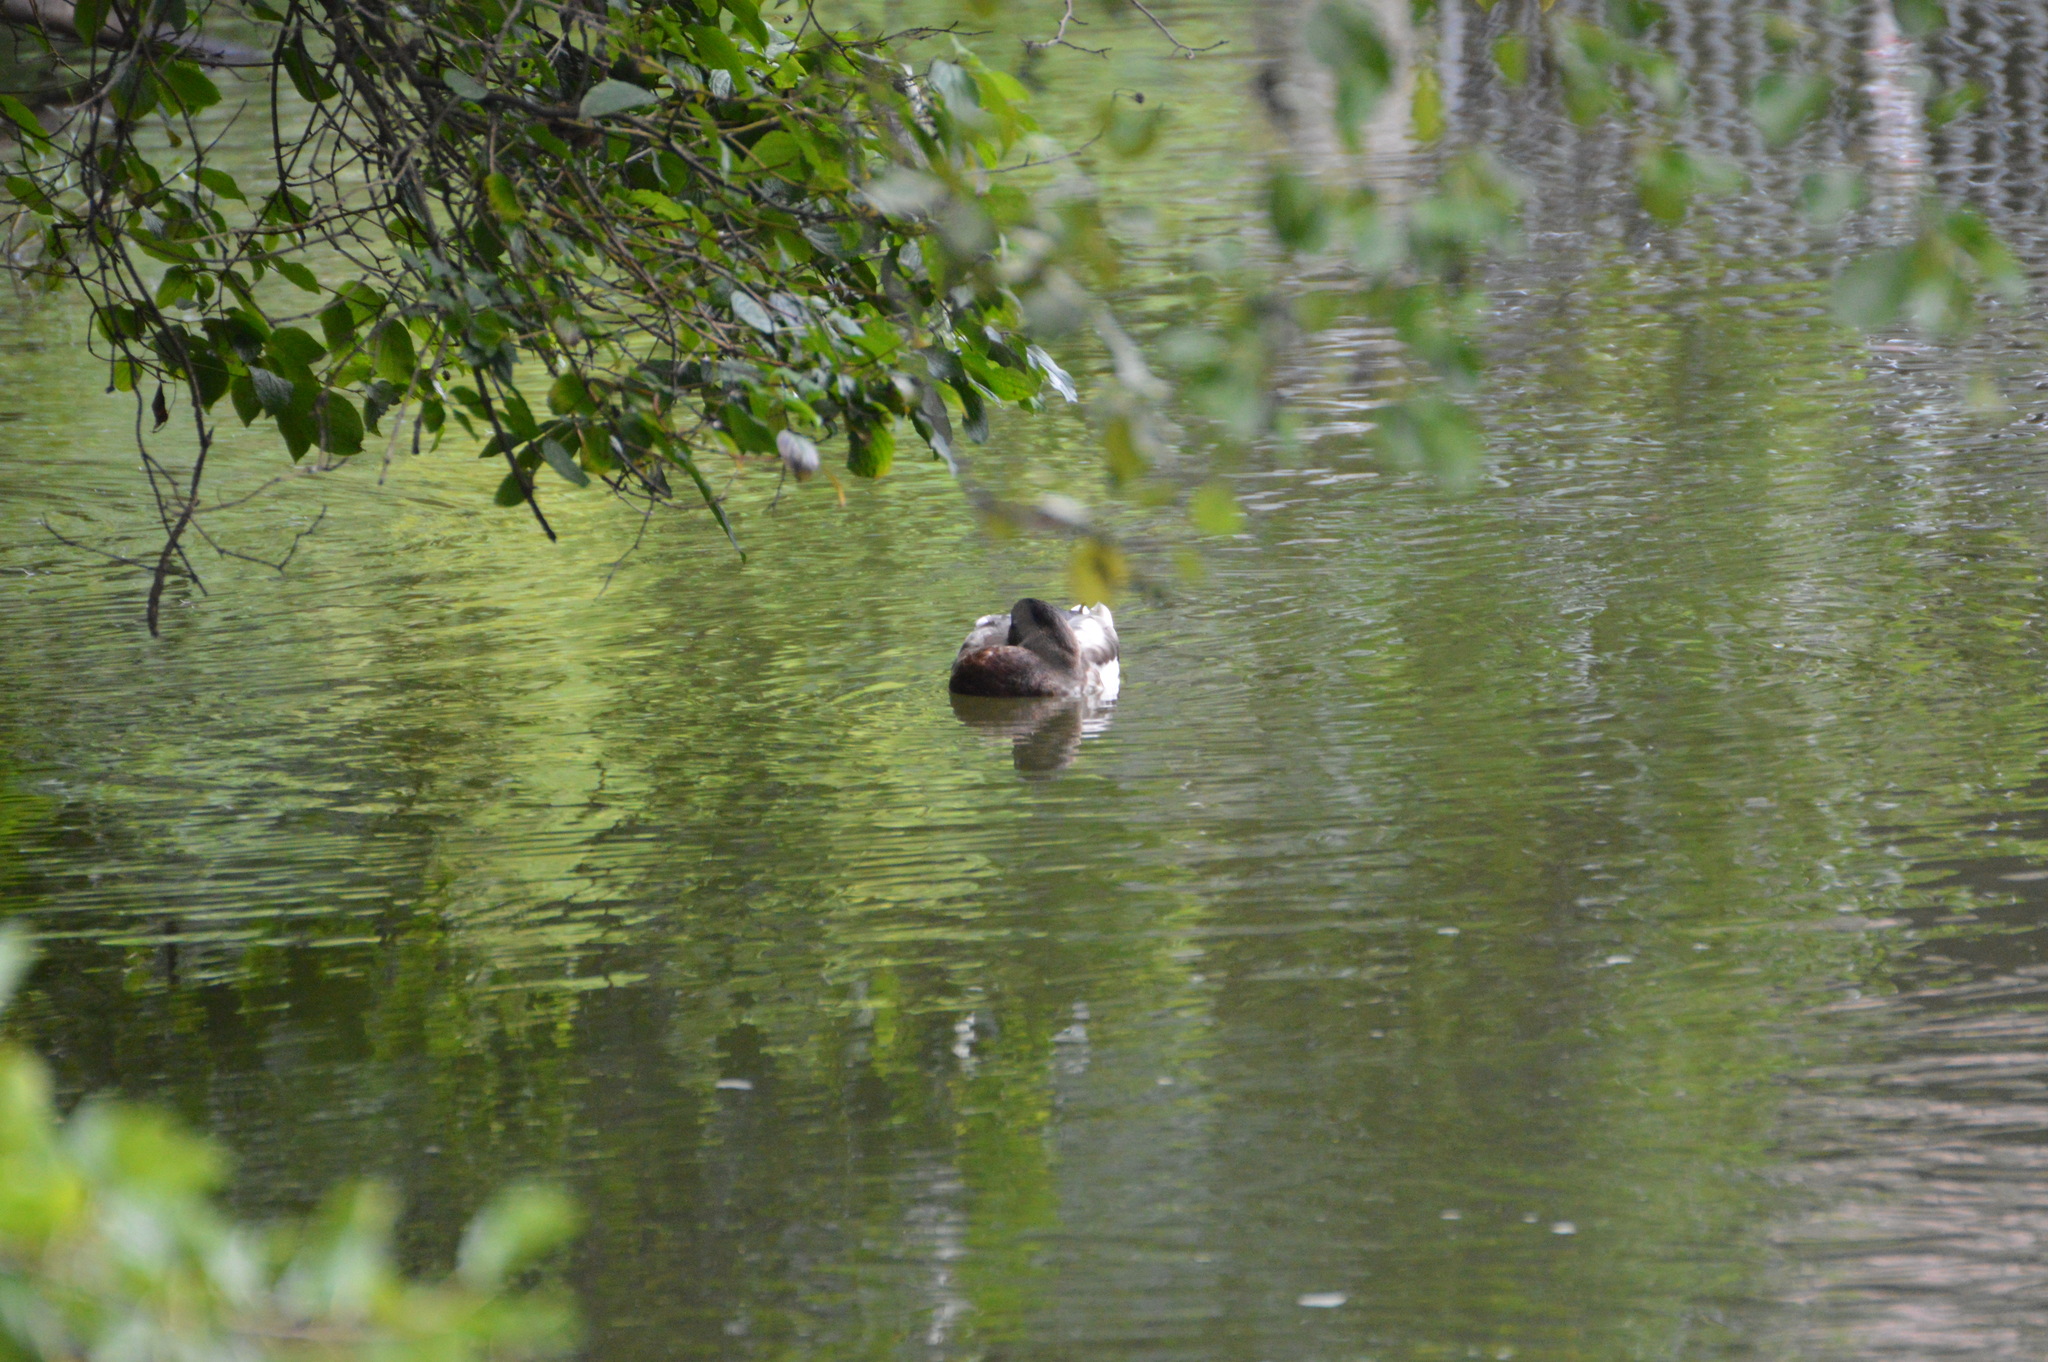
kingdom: Animalia
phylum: Chordata
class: Aves
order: Anseriformes
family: Anatidae
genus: Anas
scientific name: Anas platyrhynchos
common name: Mallard
